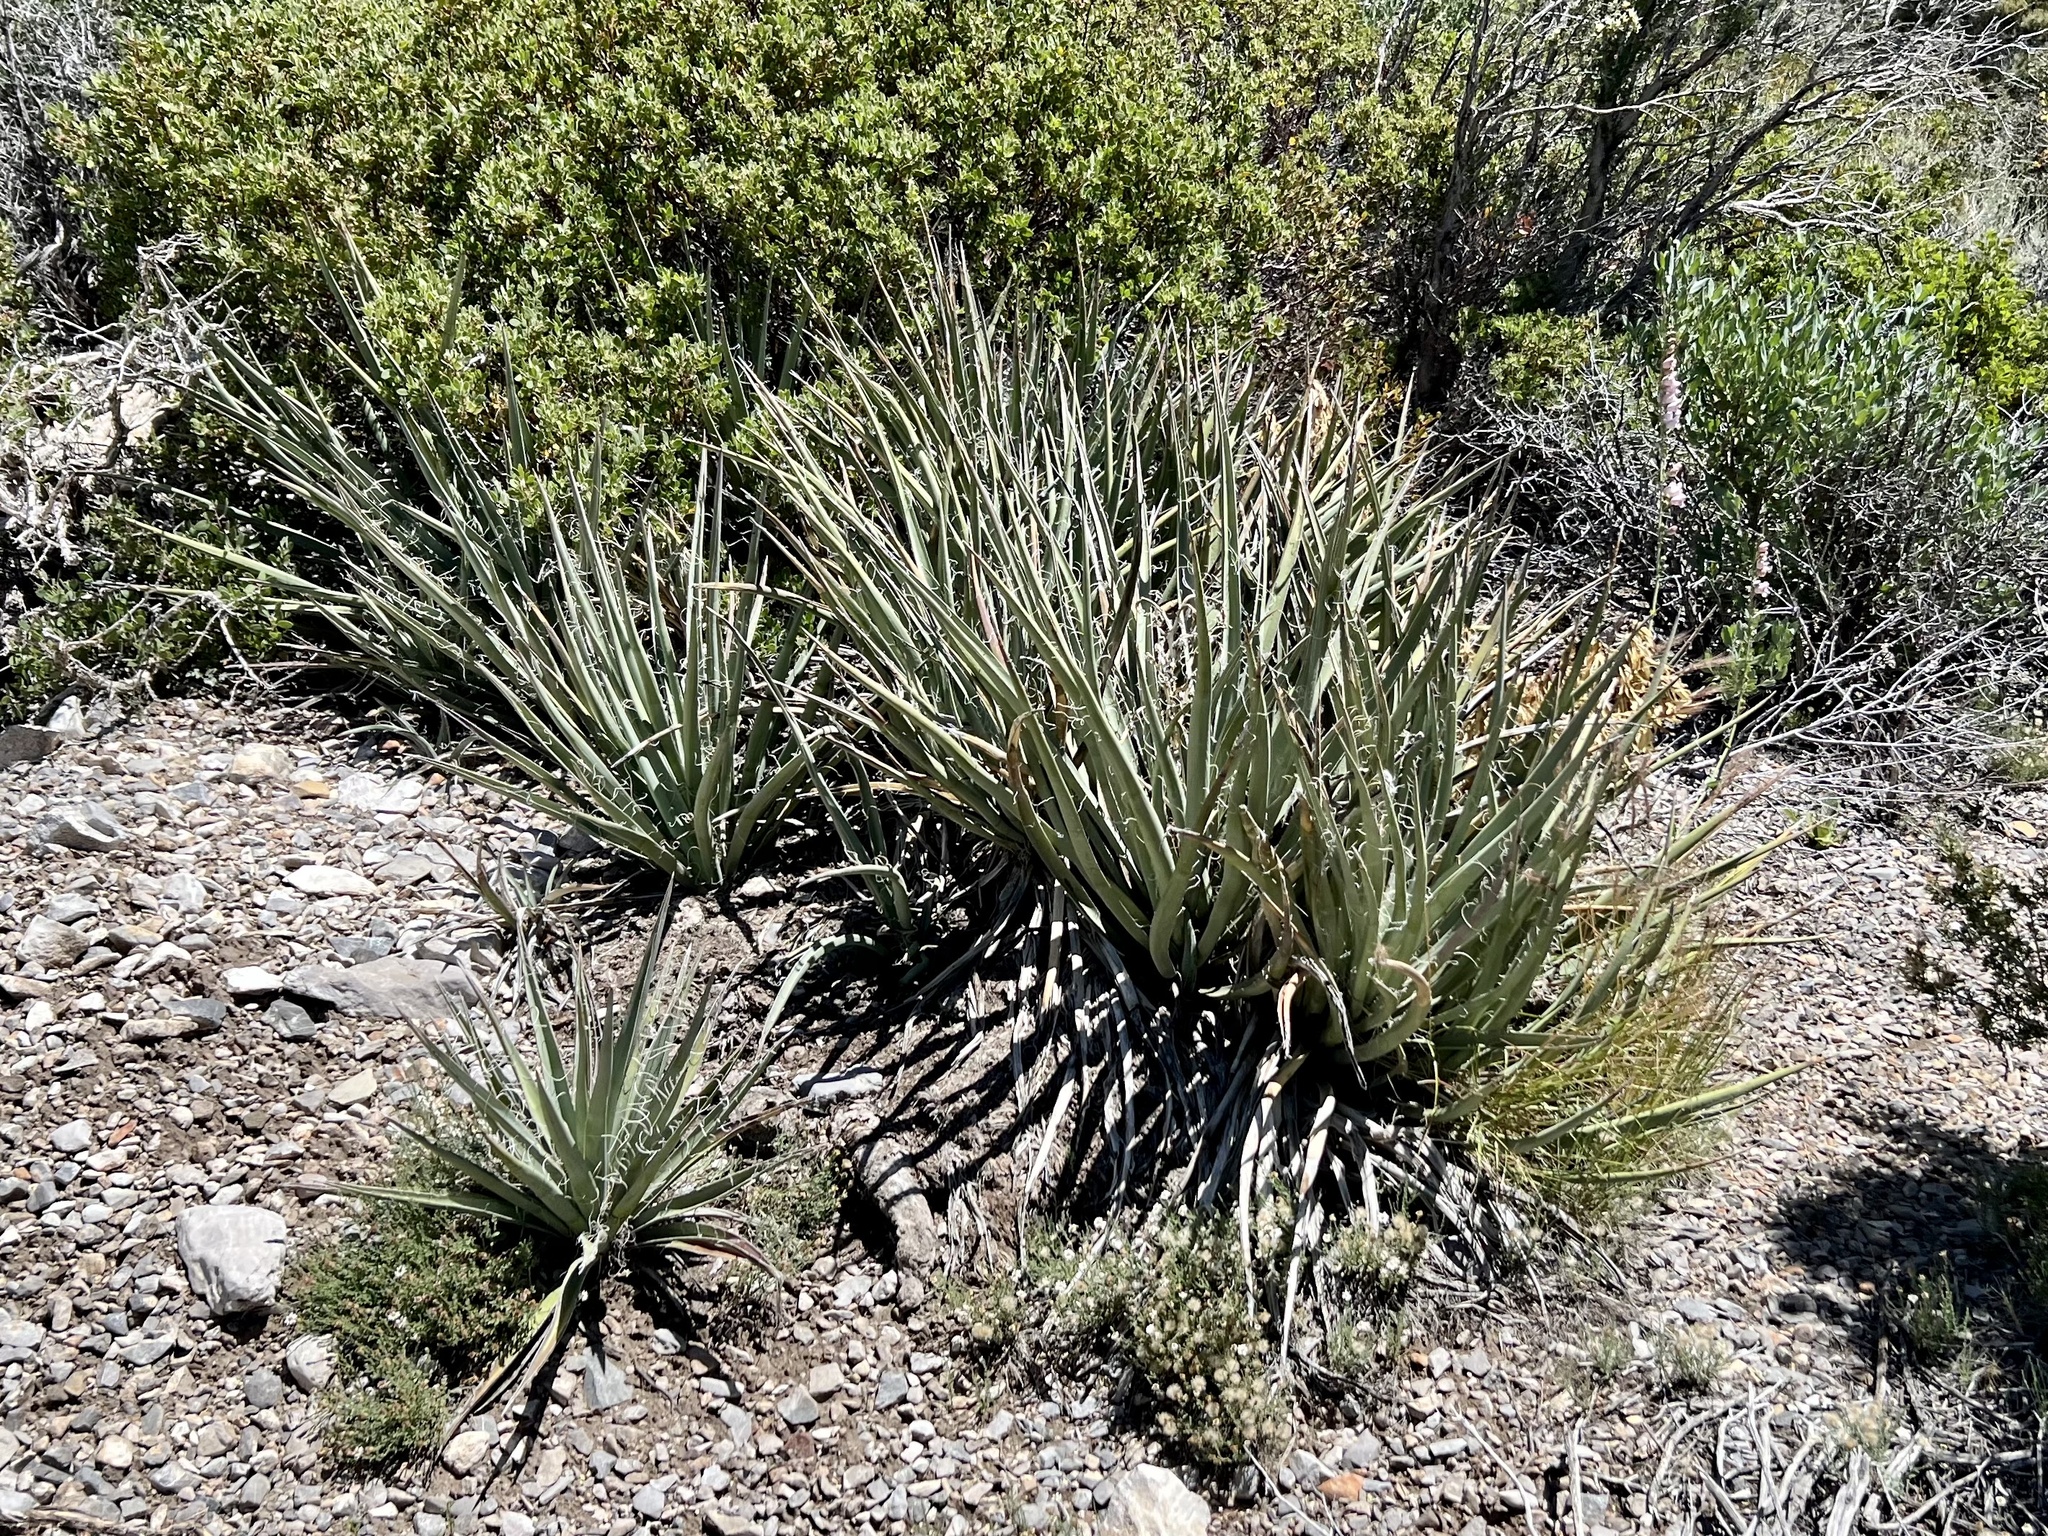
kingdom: Plantae
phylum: Tracheophyta
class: Liliopsida
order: Asparagales
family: Asparagaceae
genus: Yucca
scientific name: Yucca baccata
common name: Banana yucca
